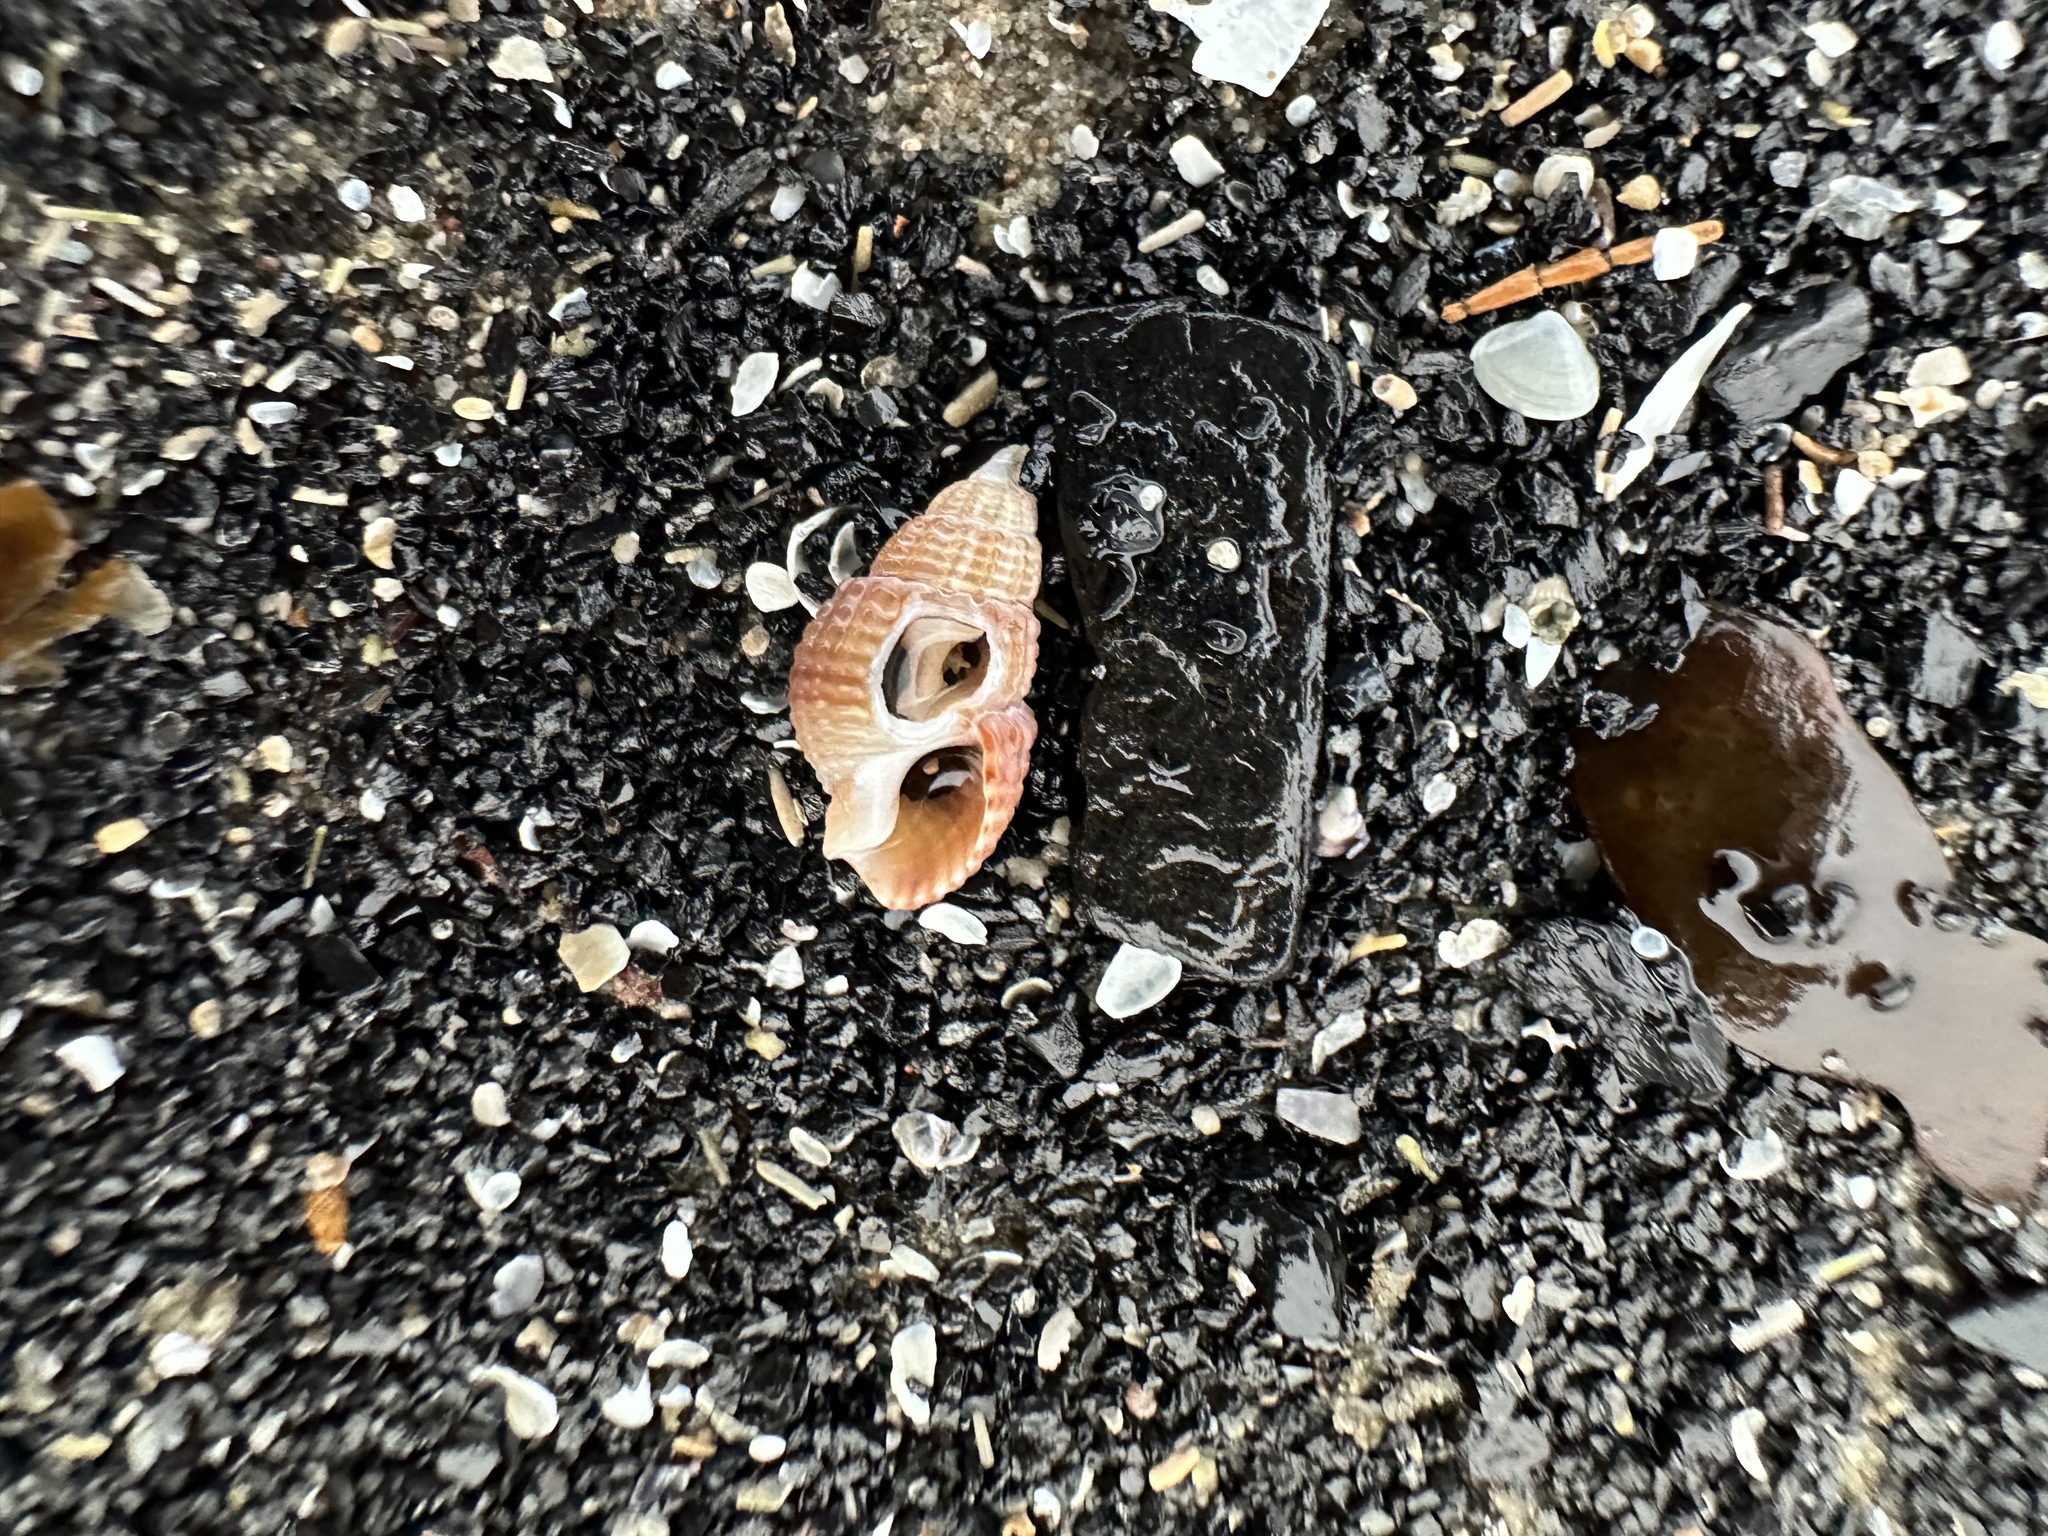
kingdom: Animalia
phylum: Mollusca
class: Gastropoda
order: Neogastropoda
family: Nassariidae
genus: Ilyanassa
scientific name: Ilyanassa trivittata
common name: Three-line mudsnail
